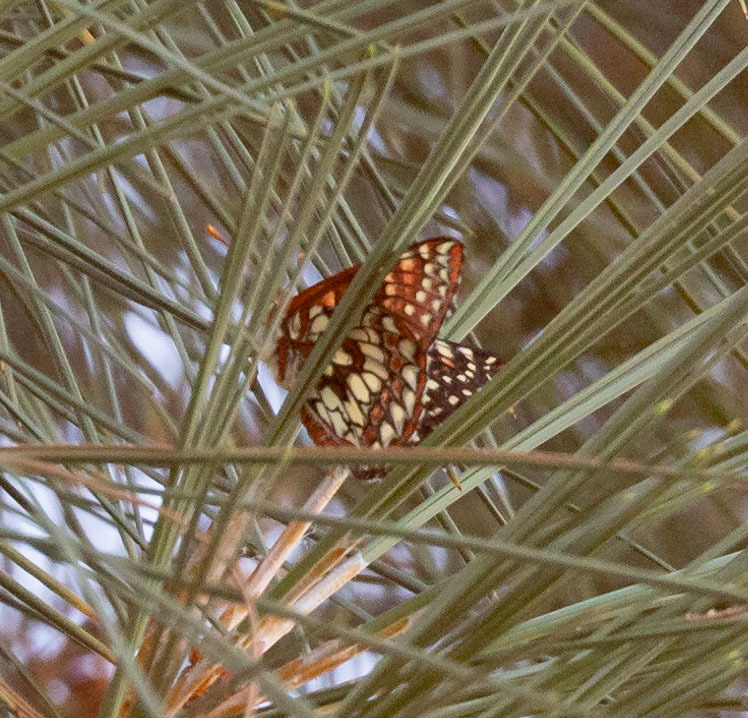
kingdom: Animalia
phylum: Arthropoda
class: Insecta
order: Lepidoptera
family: Nymphalidae
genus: Occidryas
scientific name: Occidryas chalcedona
